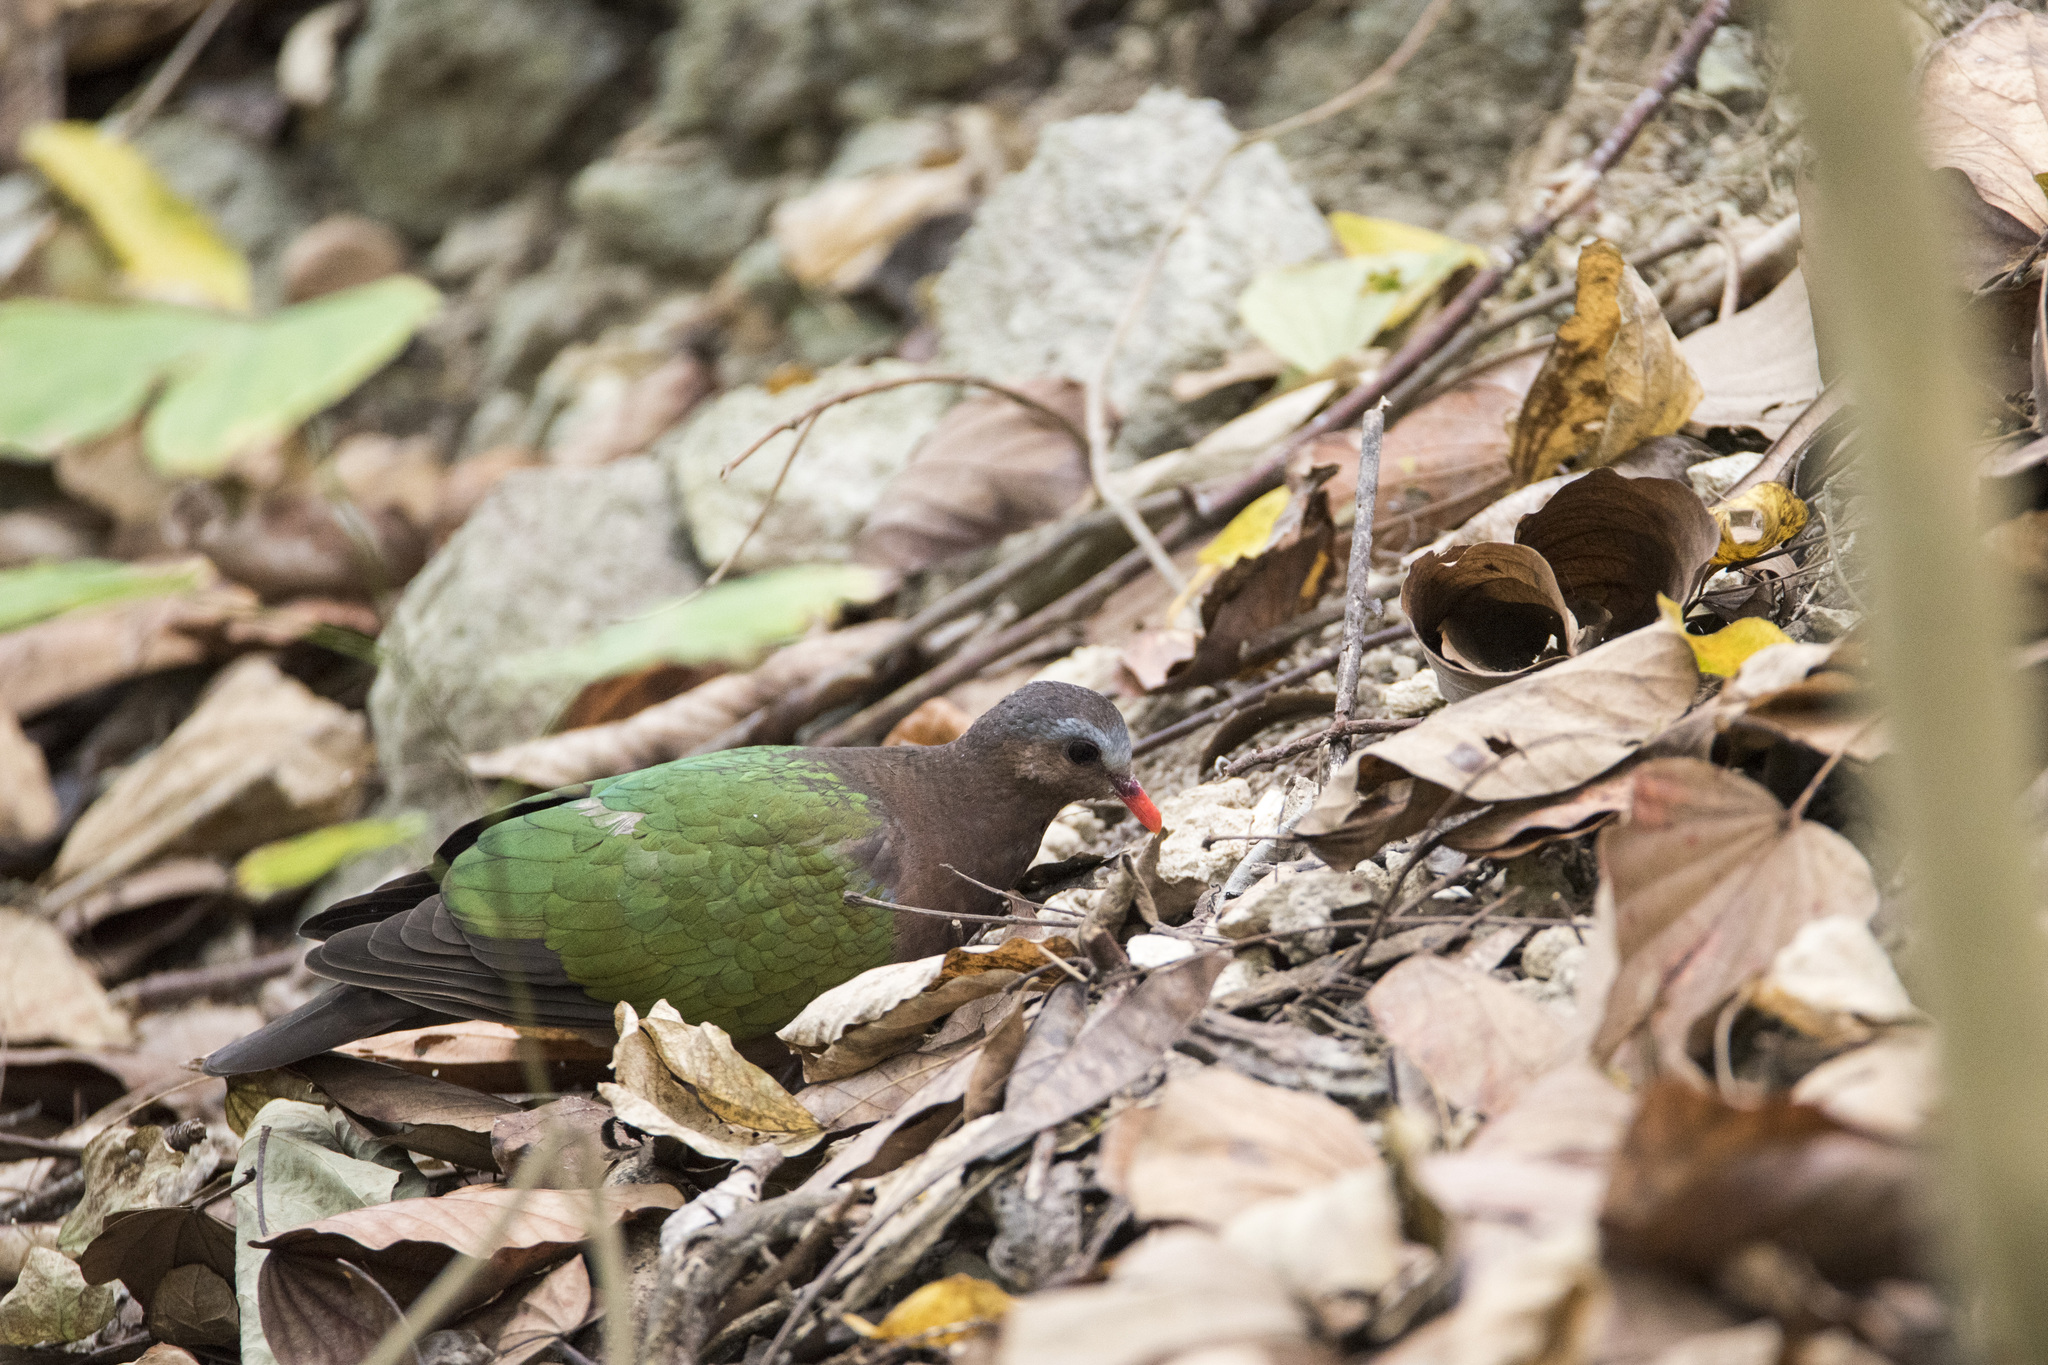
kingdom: Animalia
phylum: Chordata
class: Aves
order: Columbiformes
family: Columbidae
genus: Chalcophaps
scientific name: Chalcophaps indica
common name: Common emerald dove
